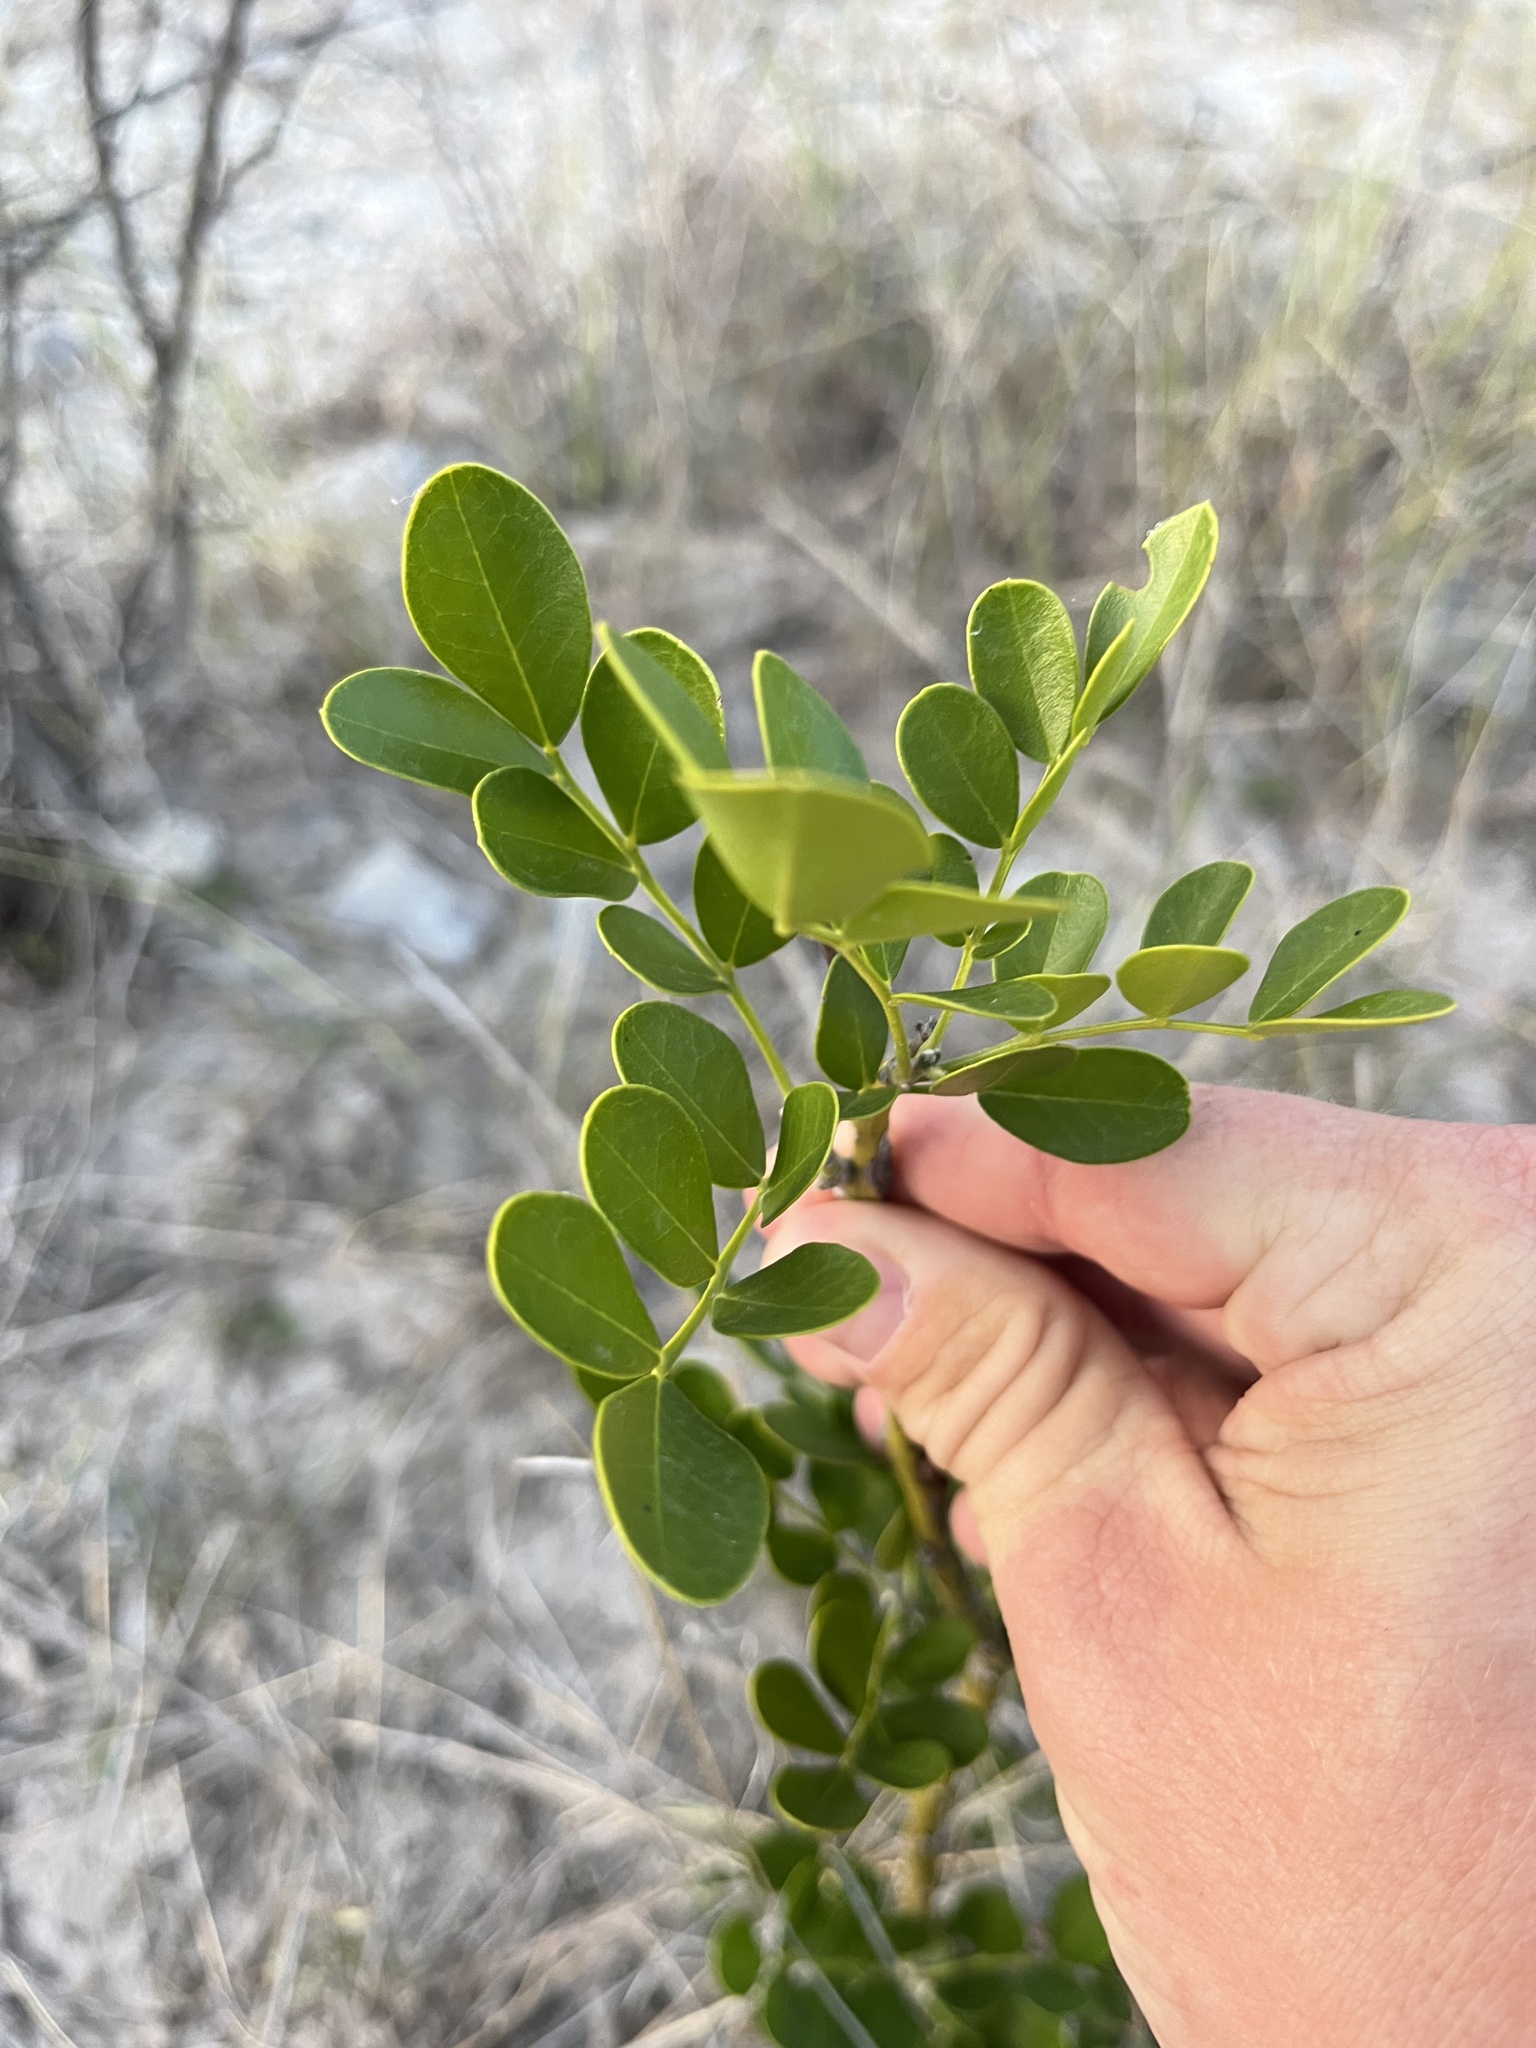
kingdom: Plantae
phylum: Tracheophyta
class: Magnoliopsida
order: Fabales
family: Fabaceae
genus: Dermatophyllum
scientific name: Dermatophyllum secundiflorum
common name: Texas-mountain-laurel
